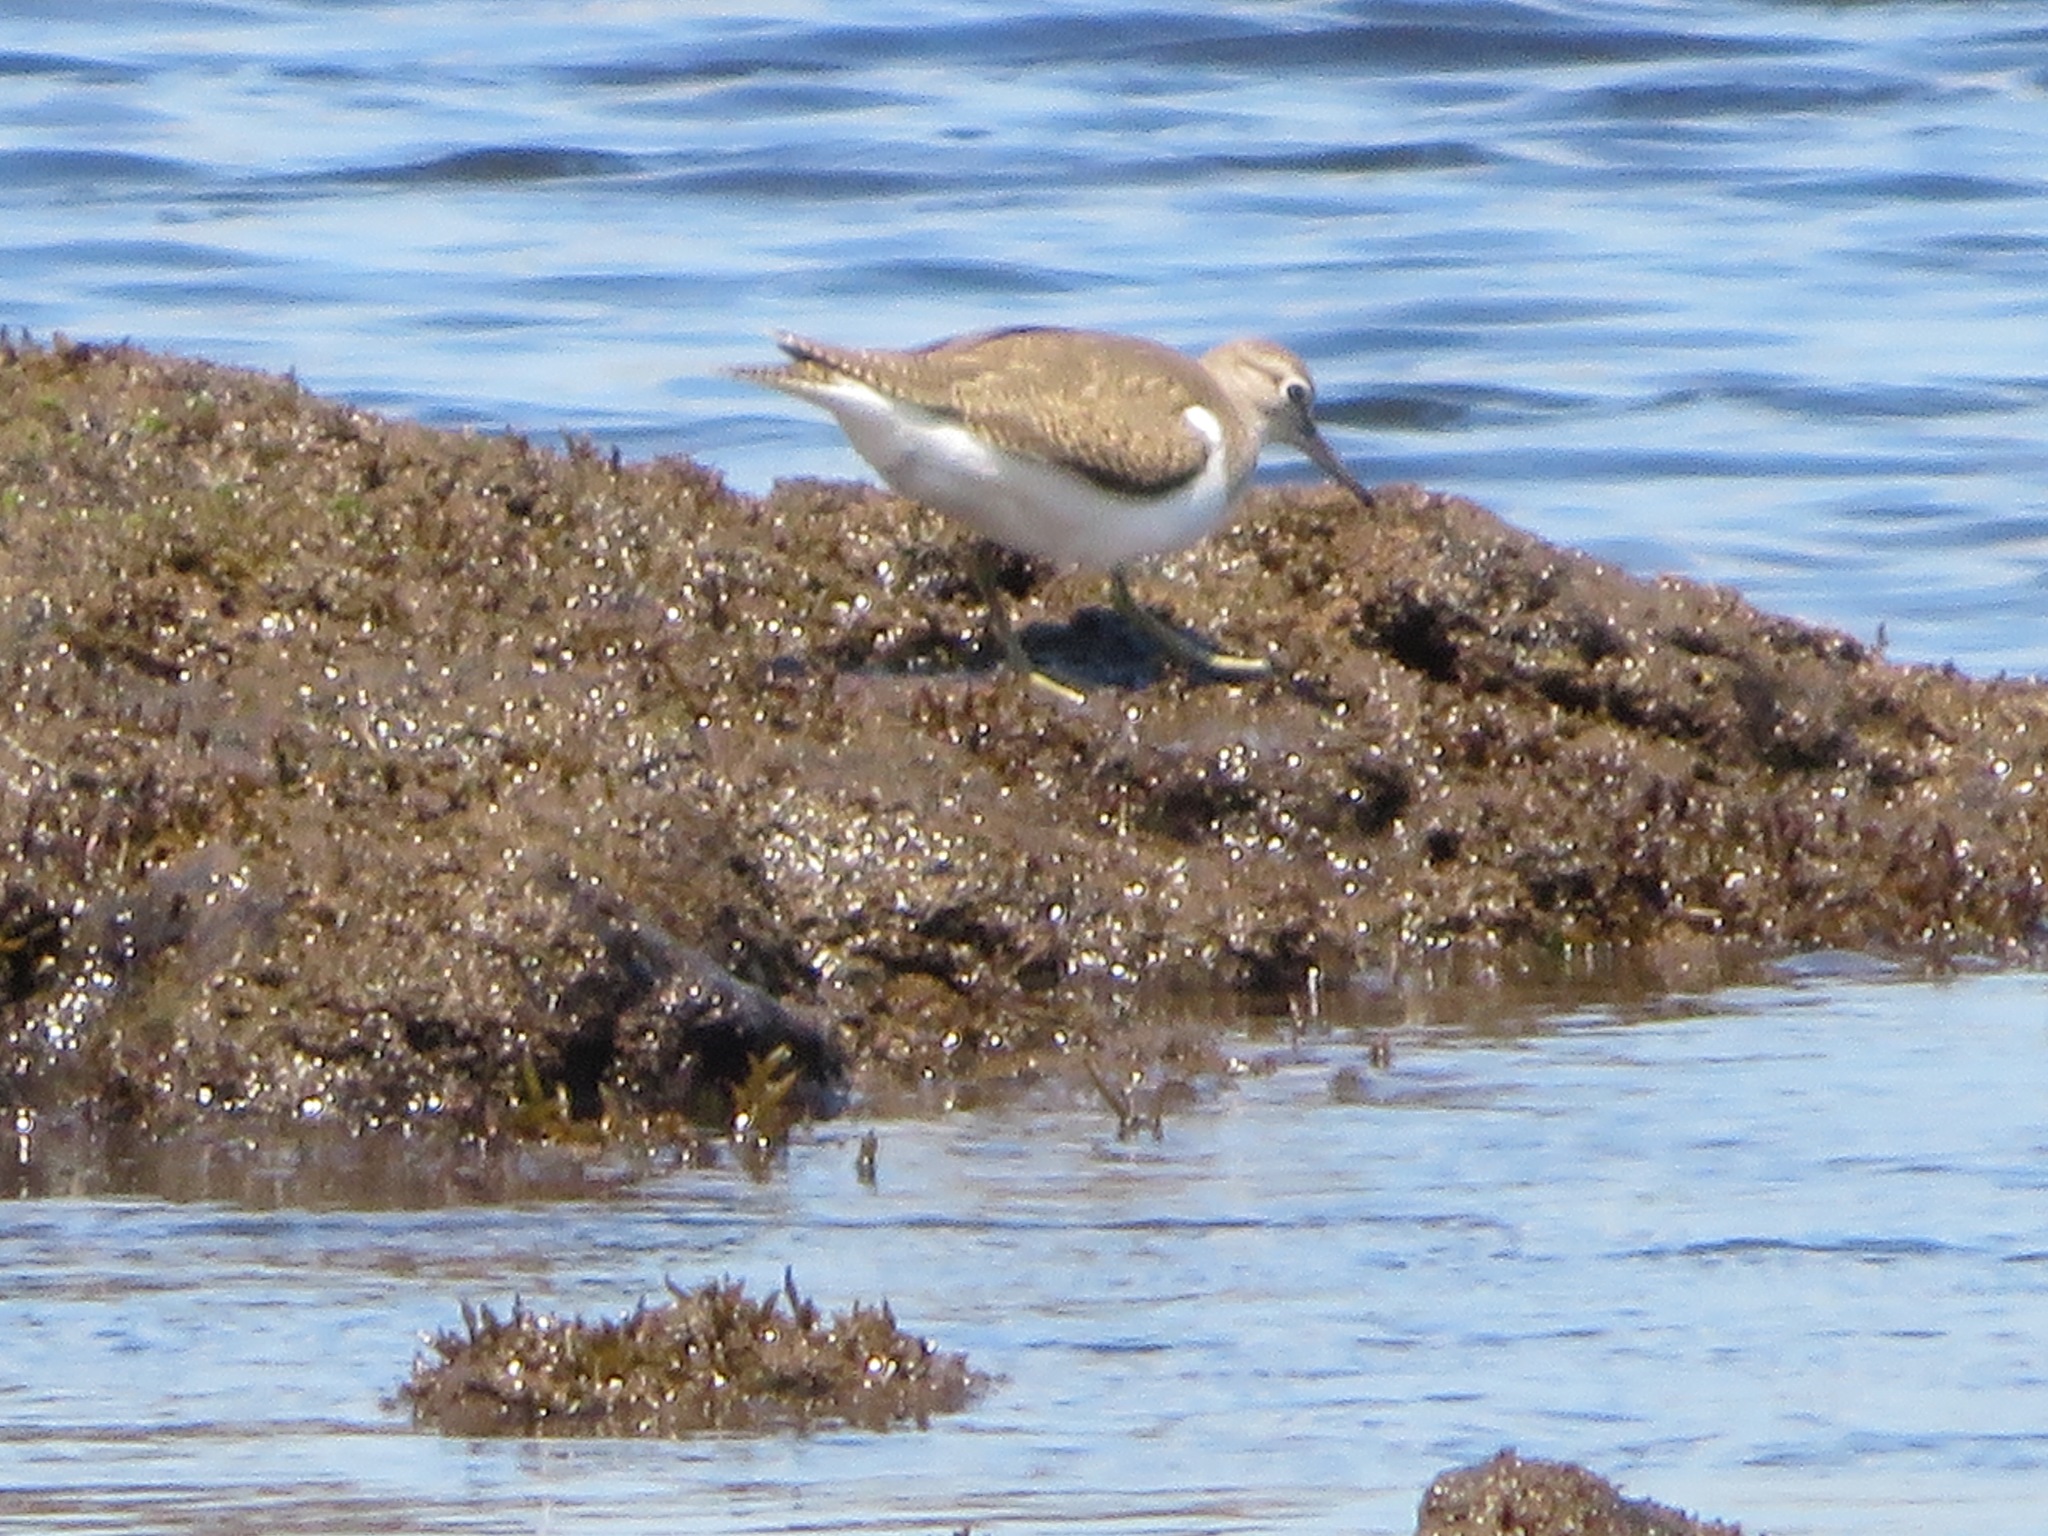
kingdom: Animalia
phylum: Chordata
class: Aves
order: Charadriiformes
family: Scolopacidae
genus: Actitis
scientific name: Actitis hypoleucos
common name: Common sandpiper
